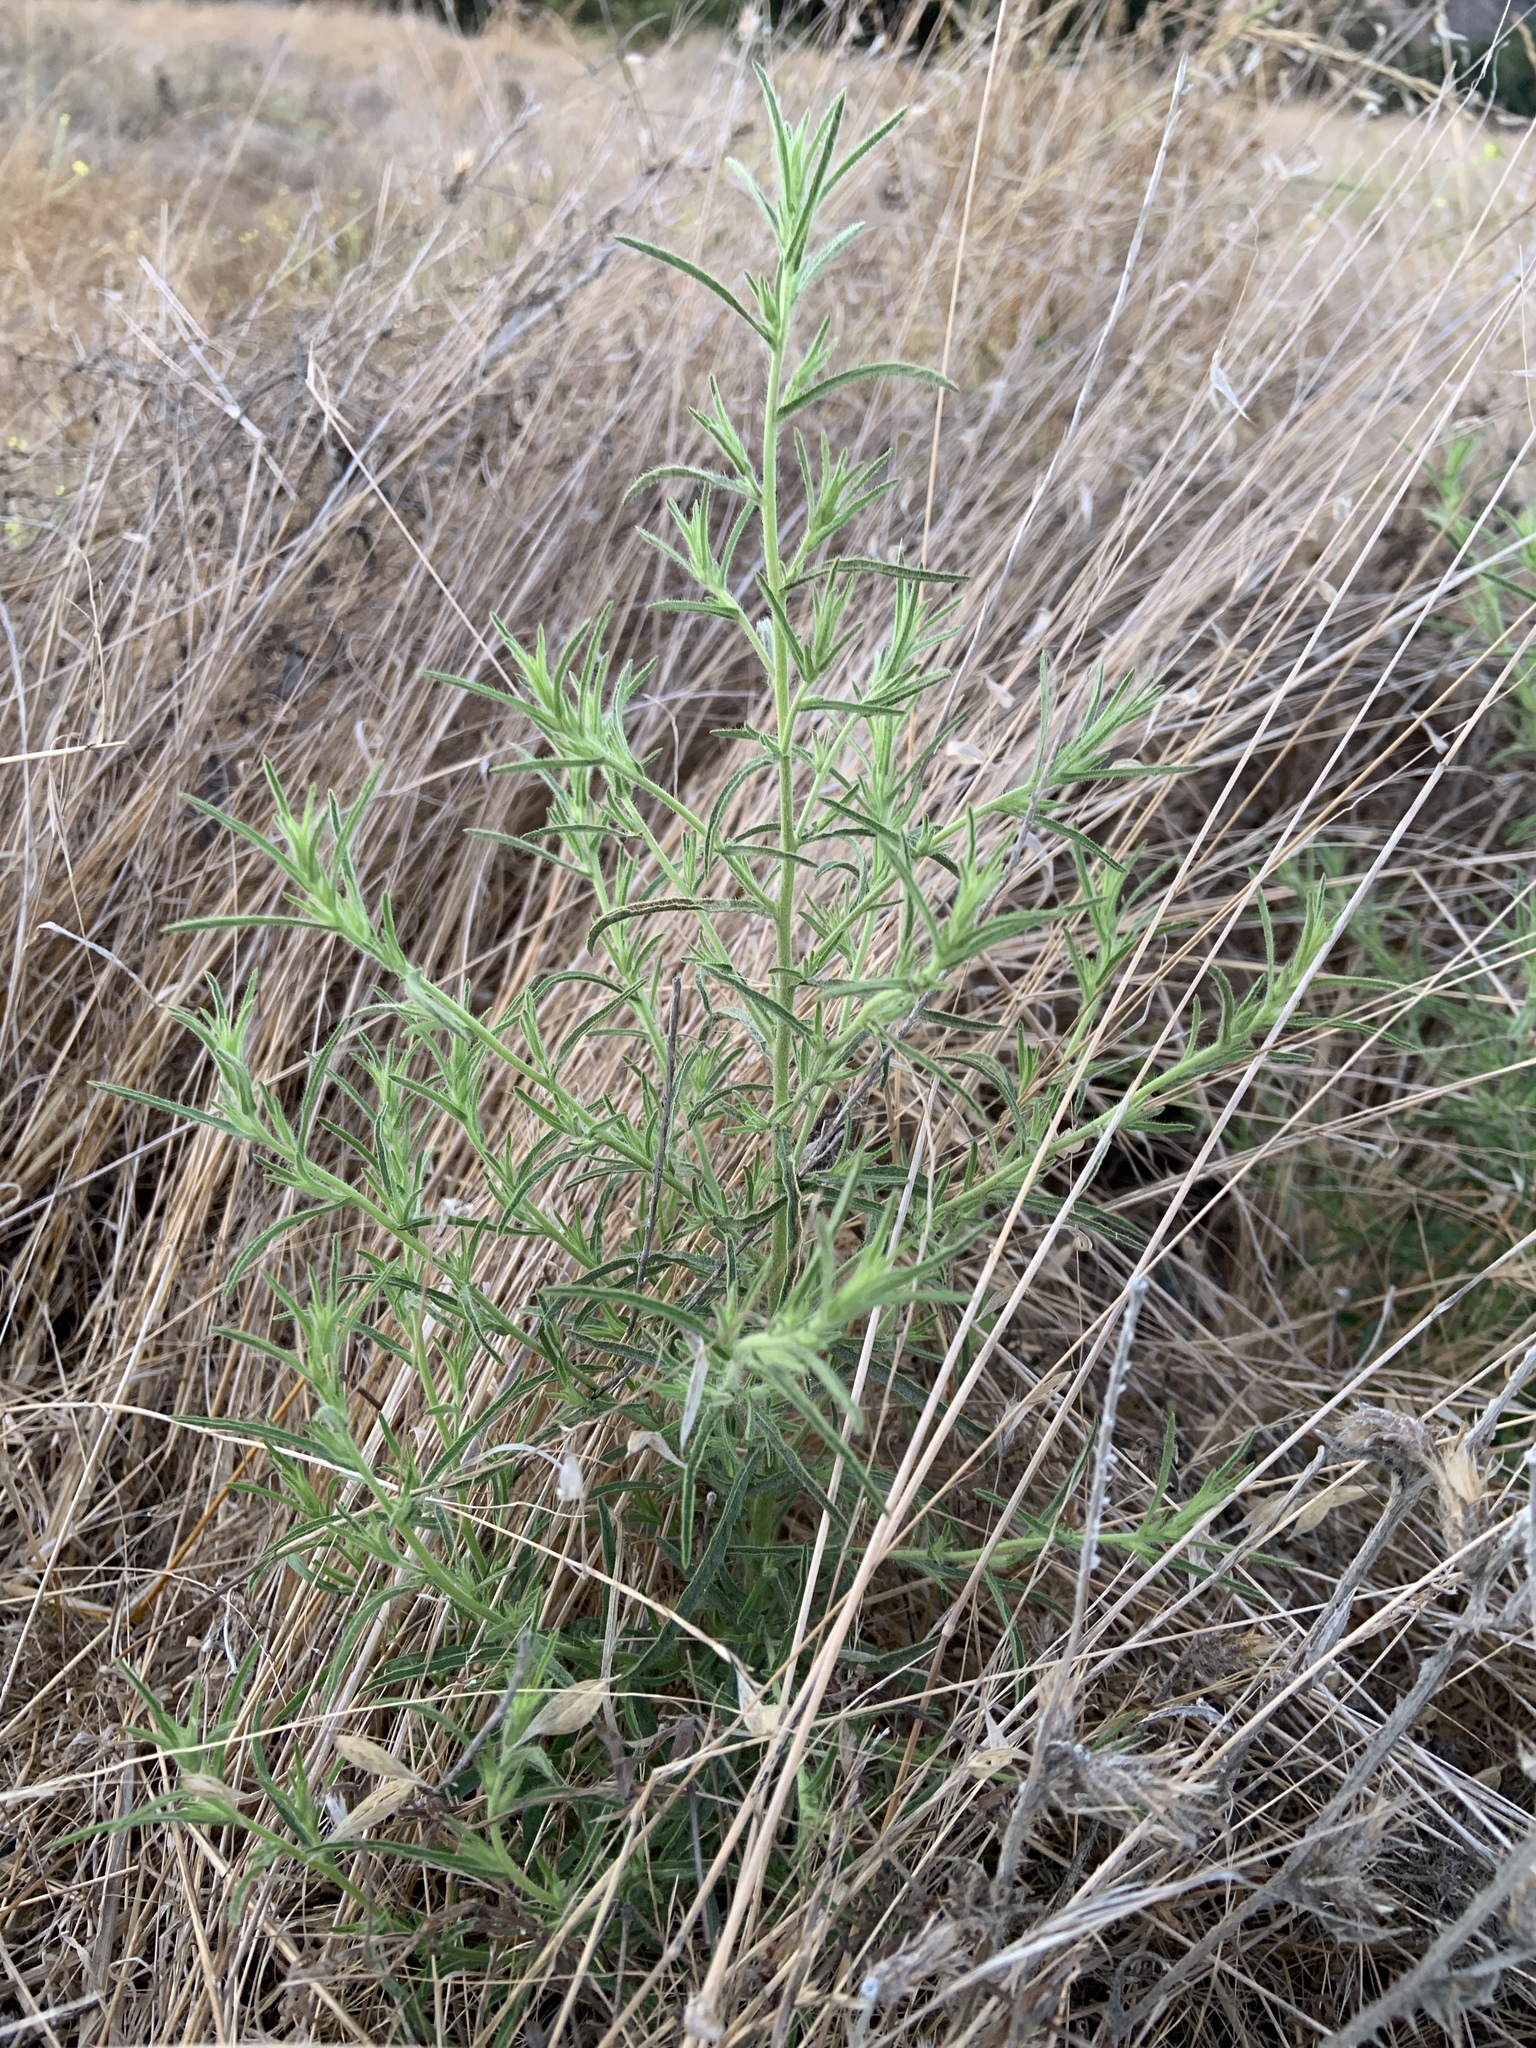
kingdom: Plantae
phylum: Tracheophyta
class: Magnoliopsida
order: Asterales
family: Asteraceae
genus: Dittrichia
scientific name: Dittrichia graveolens
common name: Stinking fleabane
